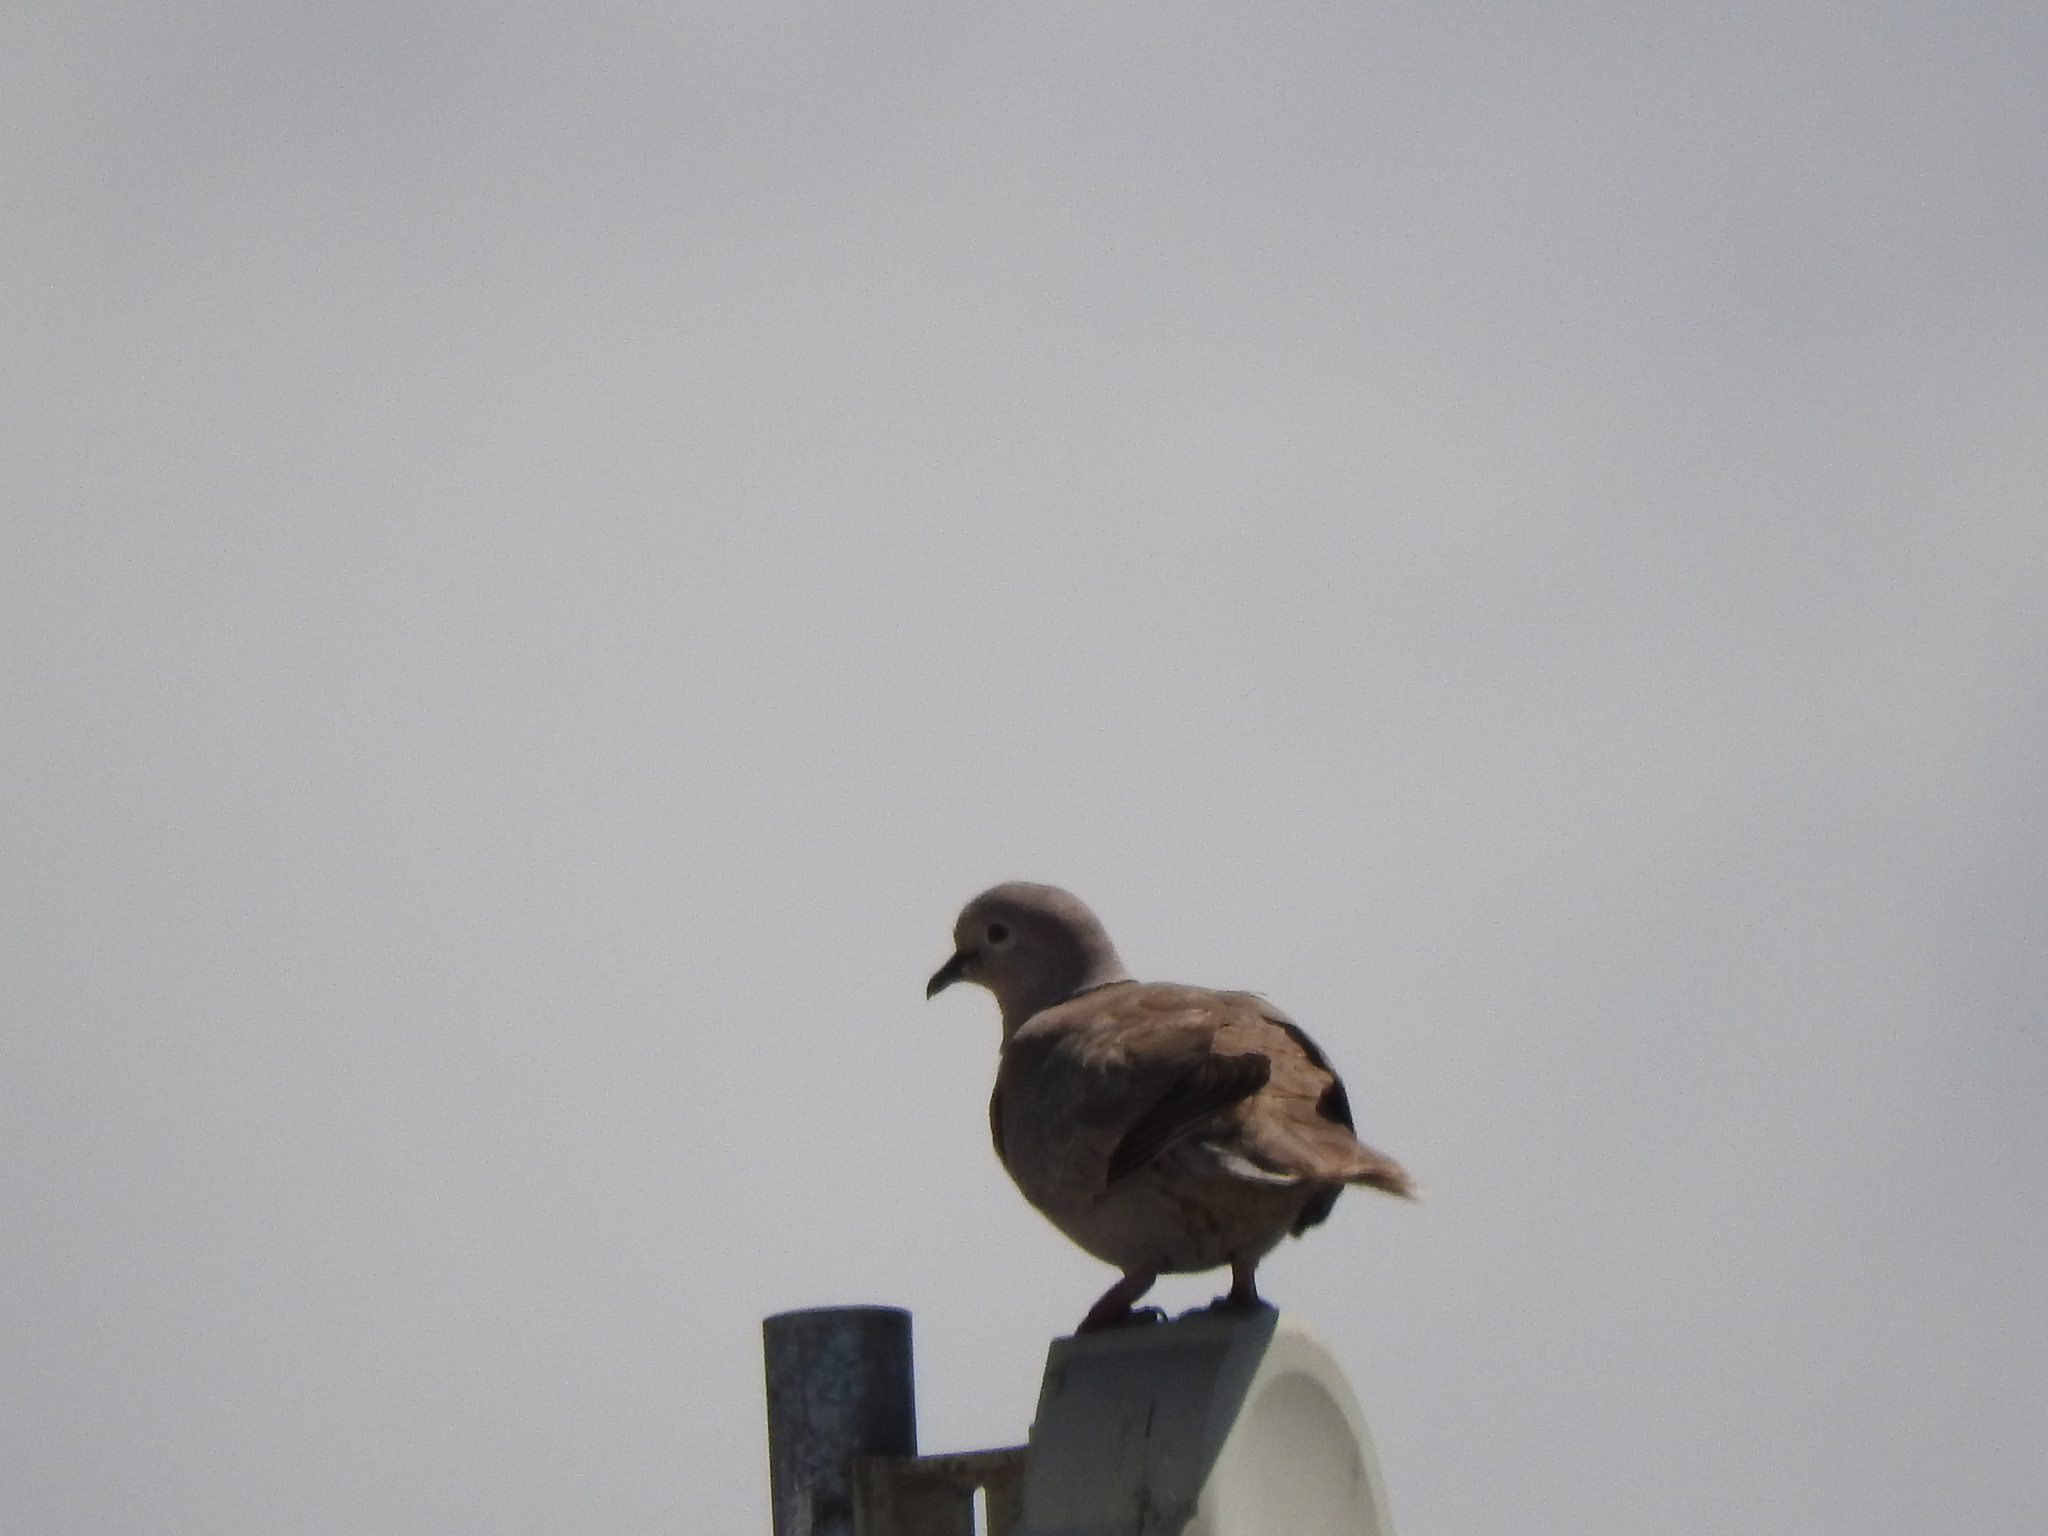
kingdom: Animalia
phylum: Chordata
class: Aves
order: Columbiformes
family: Columbidae
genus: Streptopelia
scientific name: Streptopelia decaocto
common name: Eurasian collared dove
